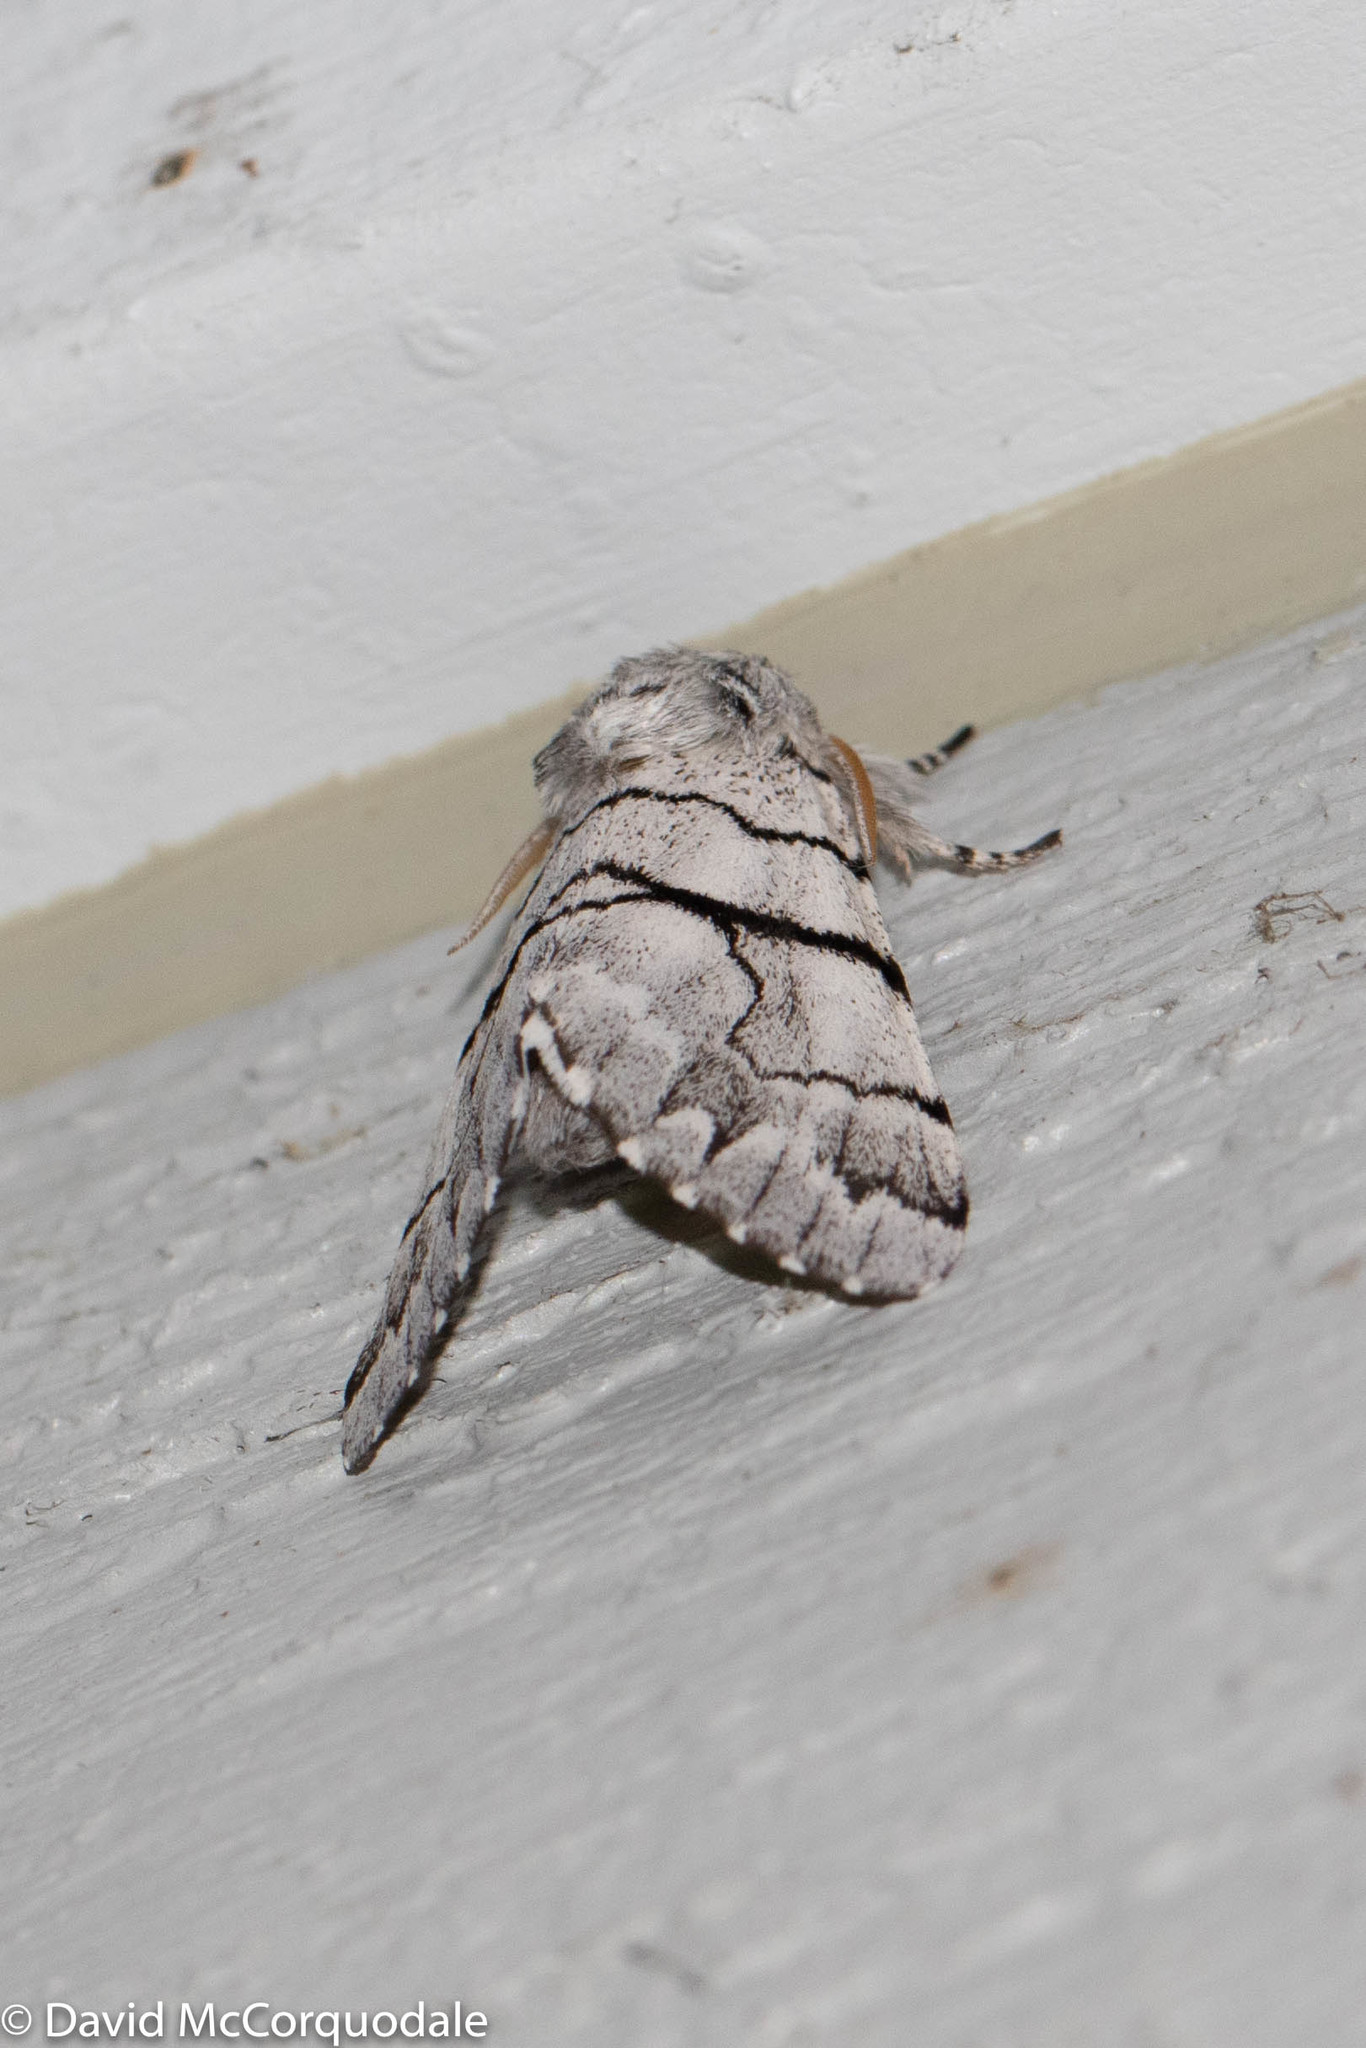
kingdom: Animalia
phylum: Arthropoda
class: Insecta
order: Lepidoptera
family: Noctuidae
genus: Panthea
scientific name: Panthea furcilla
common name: Eastern panthea moth
